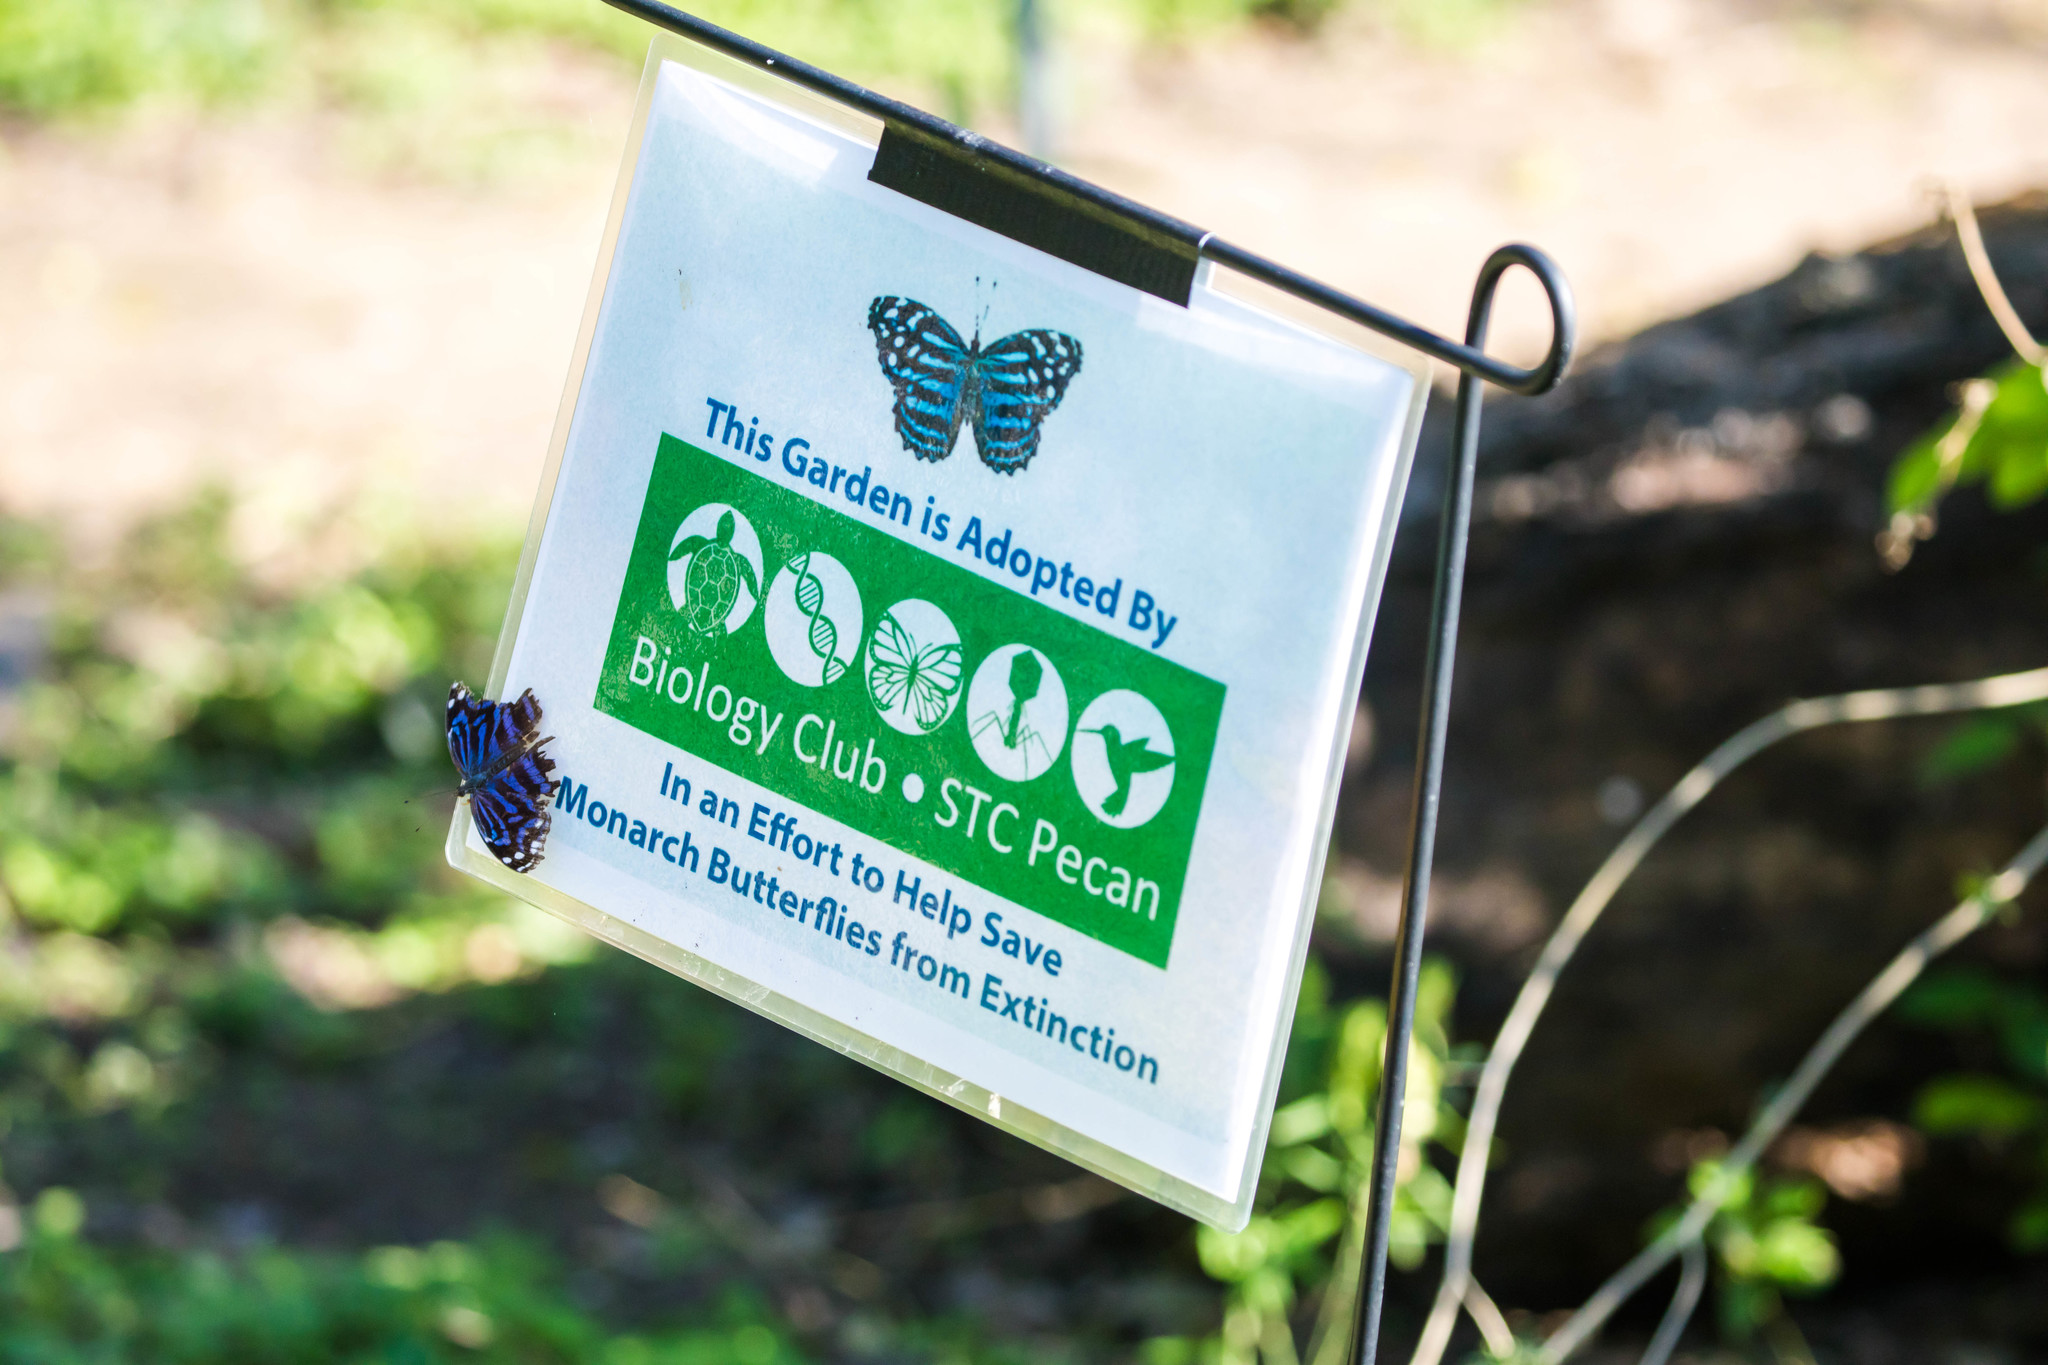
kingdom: Animalia
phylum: Arthropoda
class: Insecta
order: Lepidoptera
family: Nymphalidae
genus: Myscelia
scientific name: Myscelia ethusa
